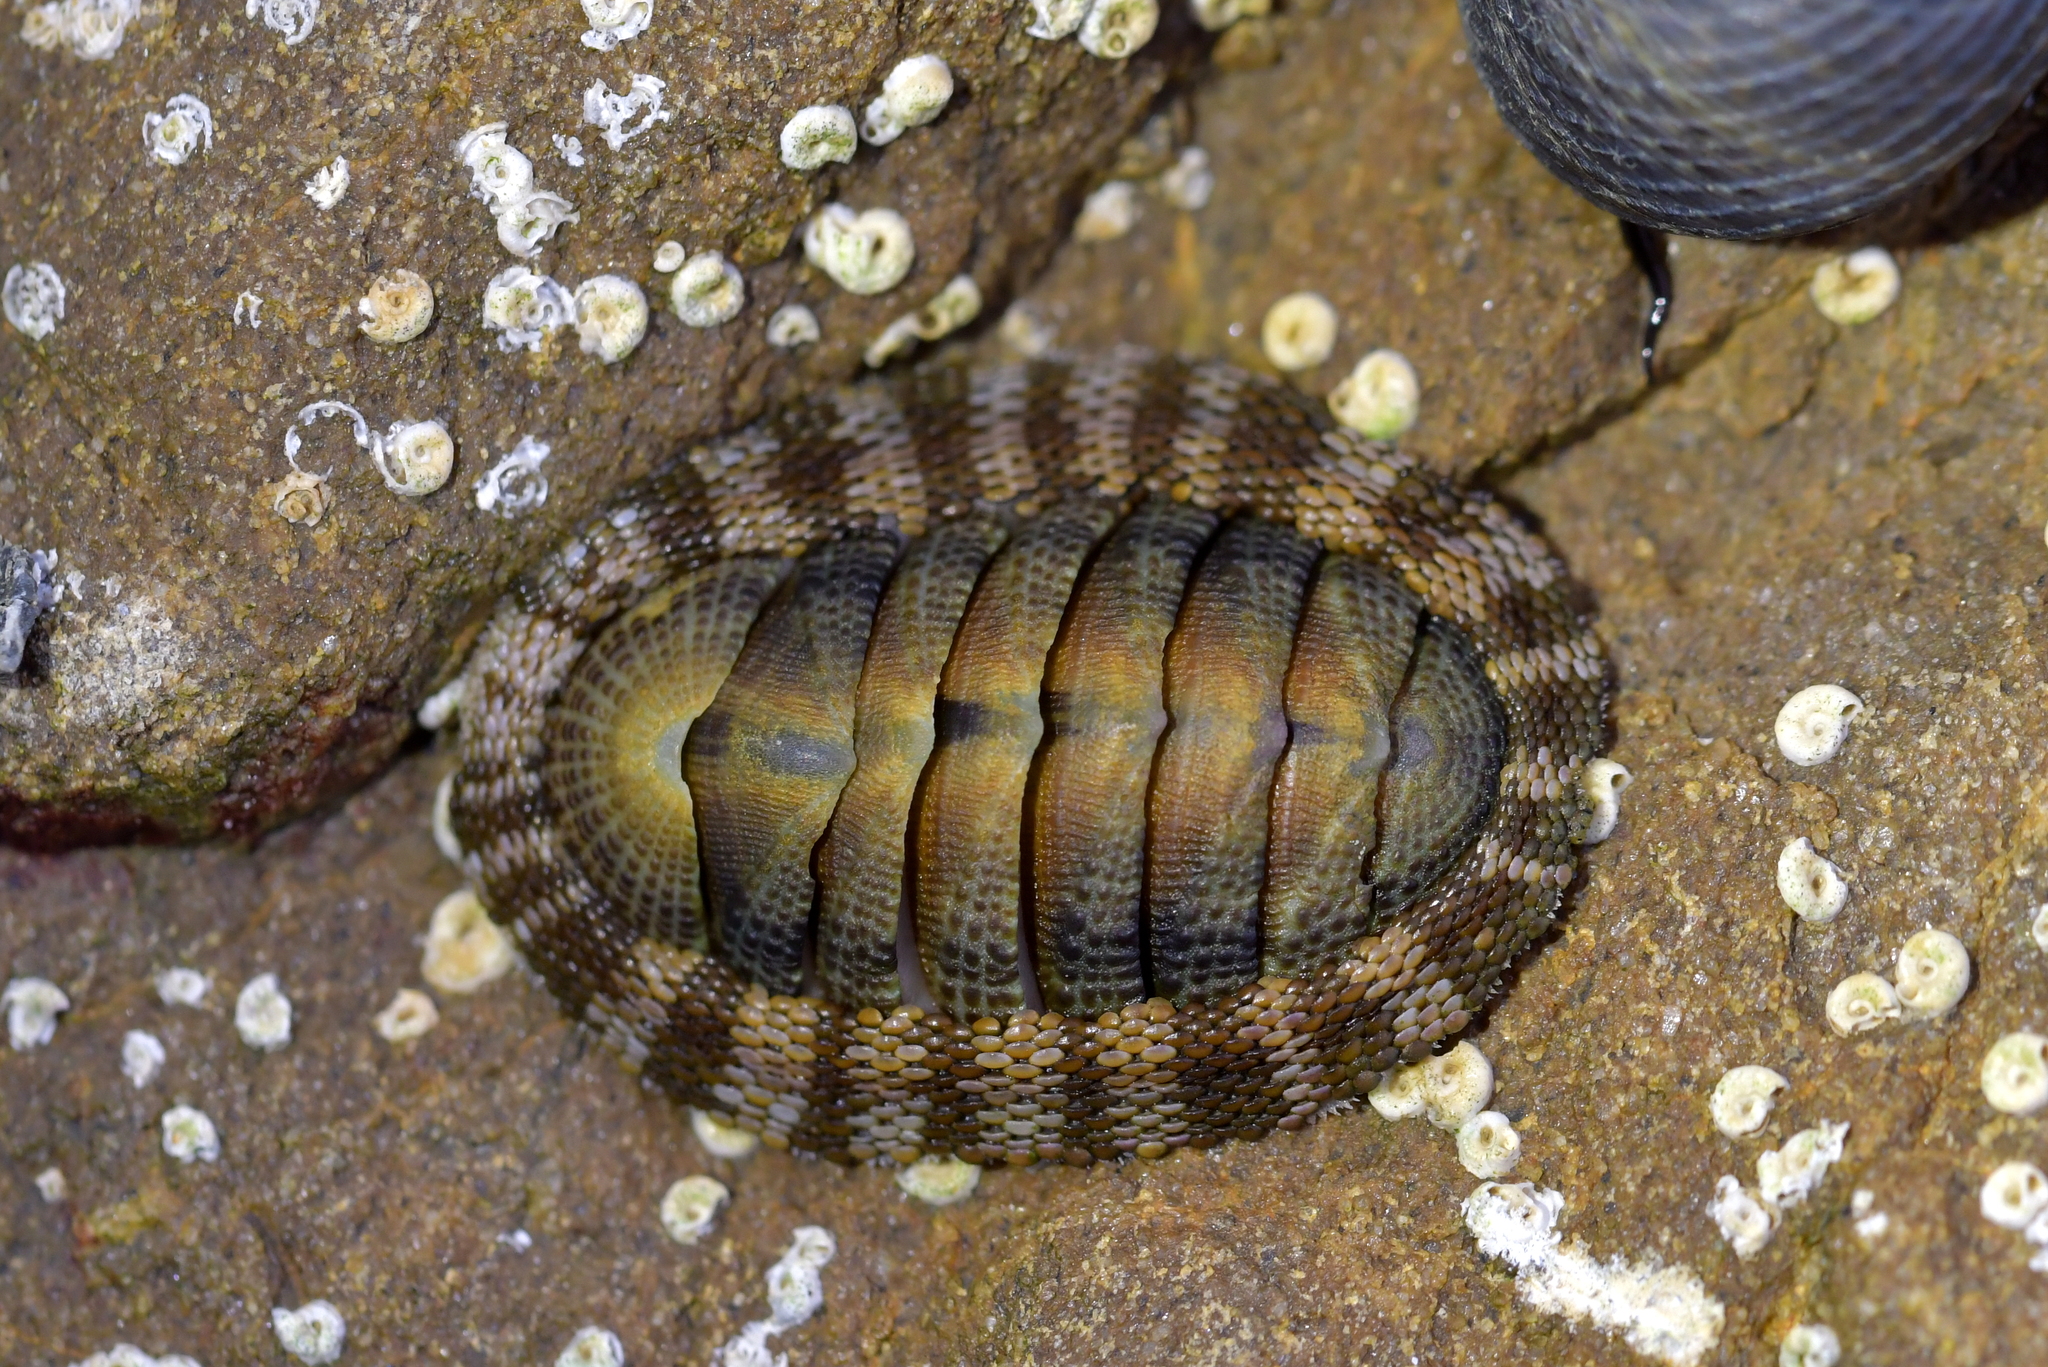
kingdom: Animalia
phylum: Mollusca
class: Polyplacophora
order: Chitonida
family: Chitonidae
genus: Sypharochiton
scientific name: Sypharochiton pelliserpentis
